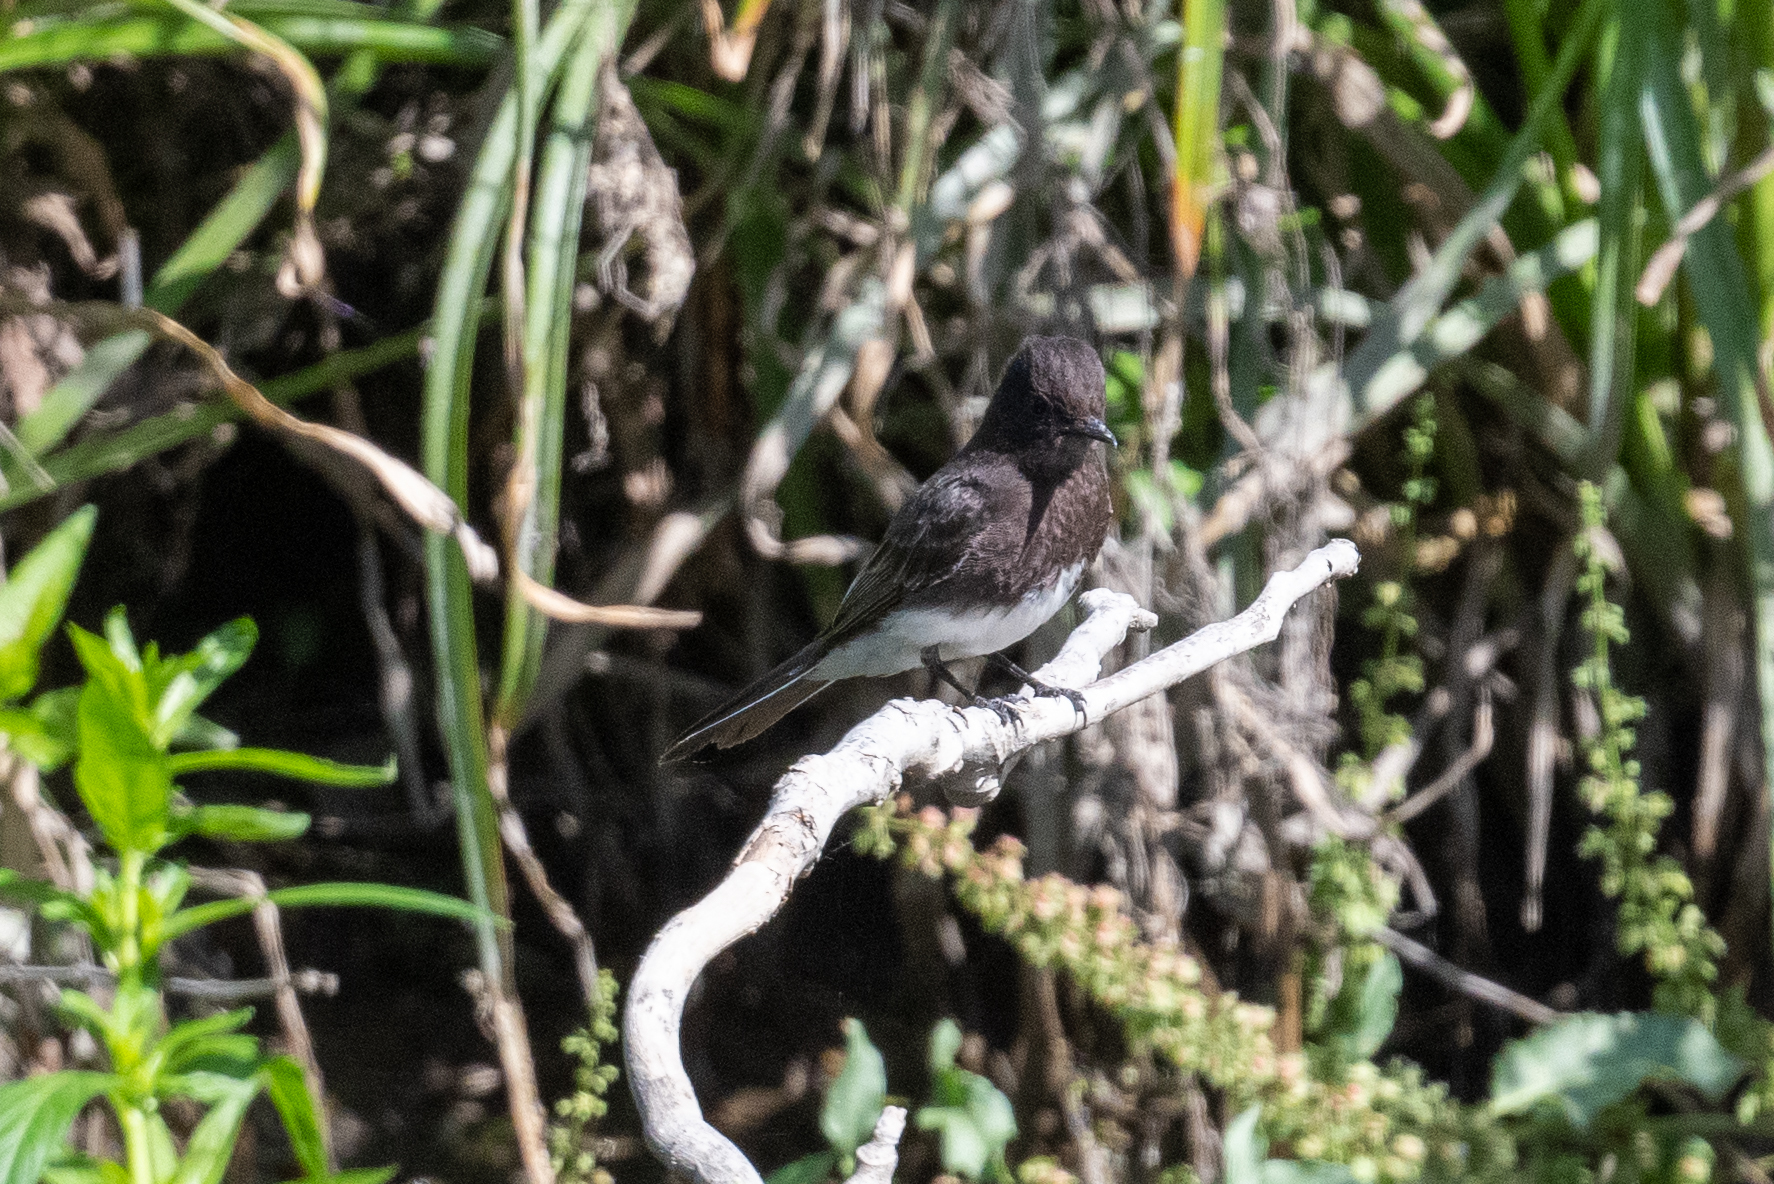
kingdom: Animalia
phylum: Chordata
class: Aves
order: Passeriformes
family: Tyrannidae
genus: Sayornis
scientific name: Sayornis nigricans
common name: Black phoebe
